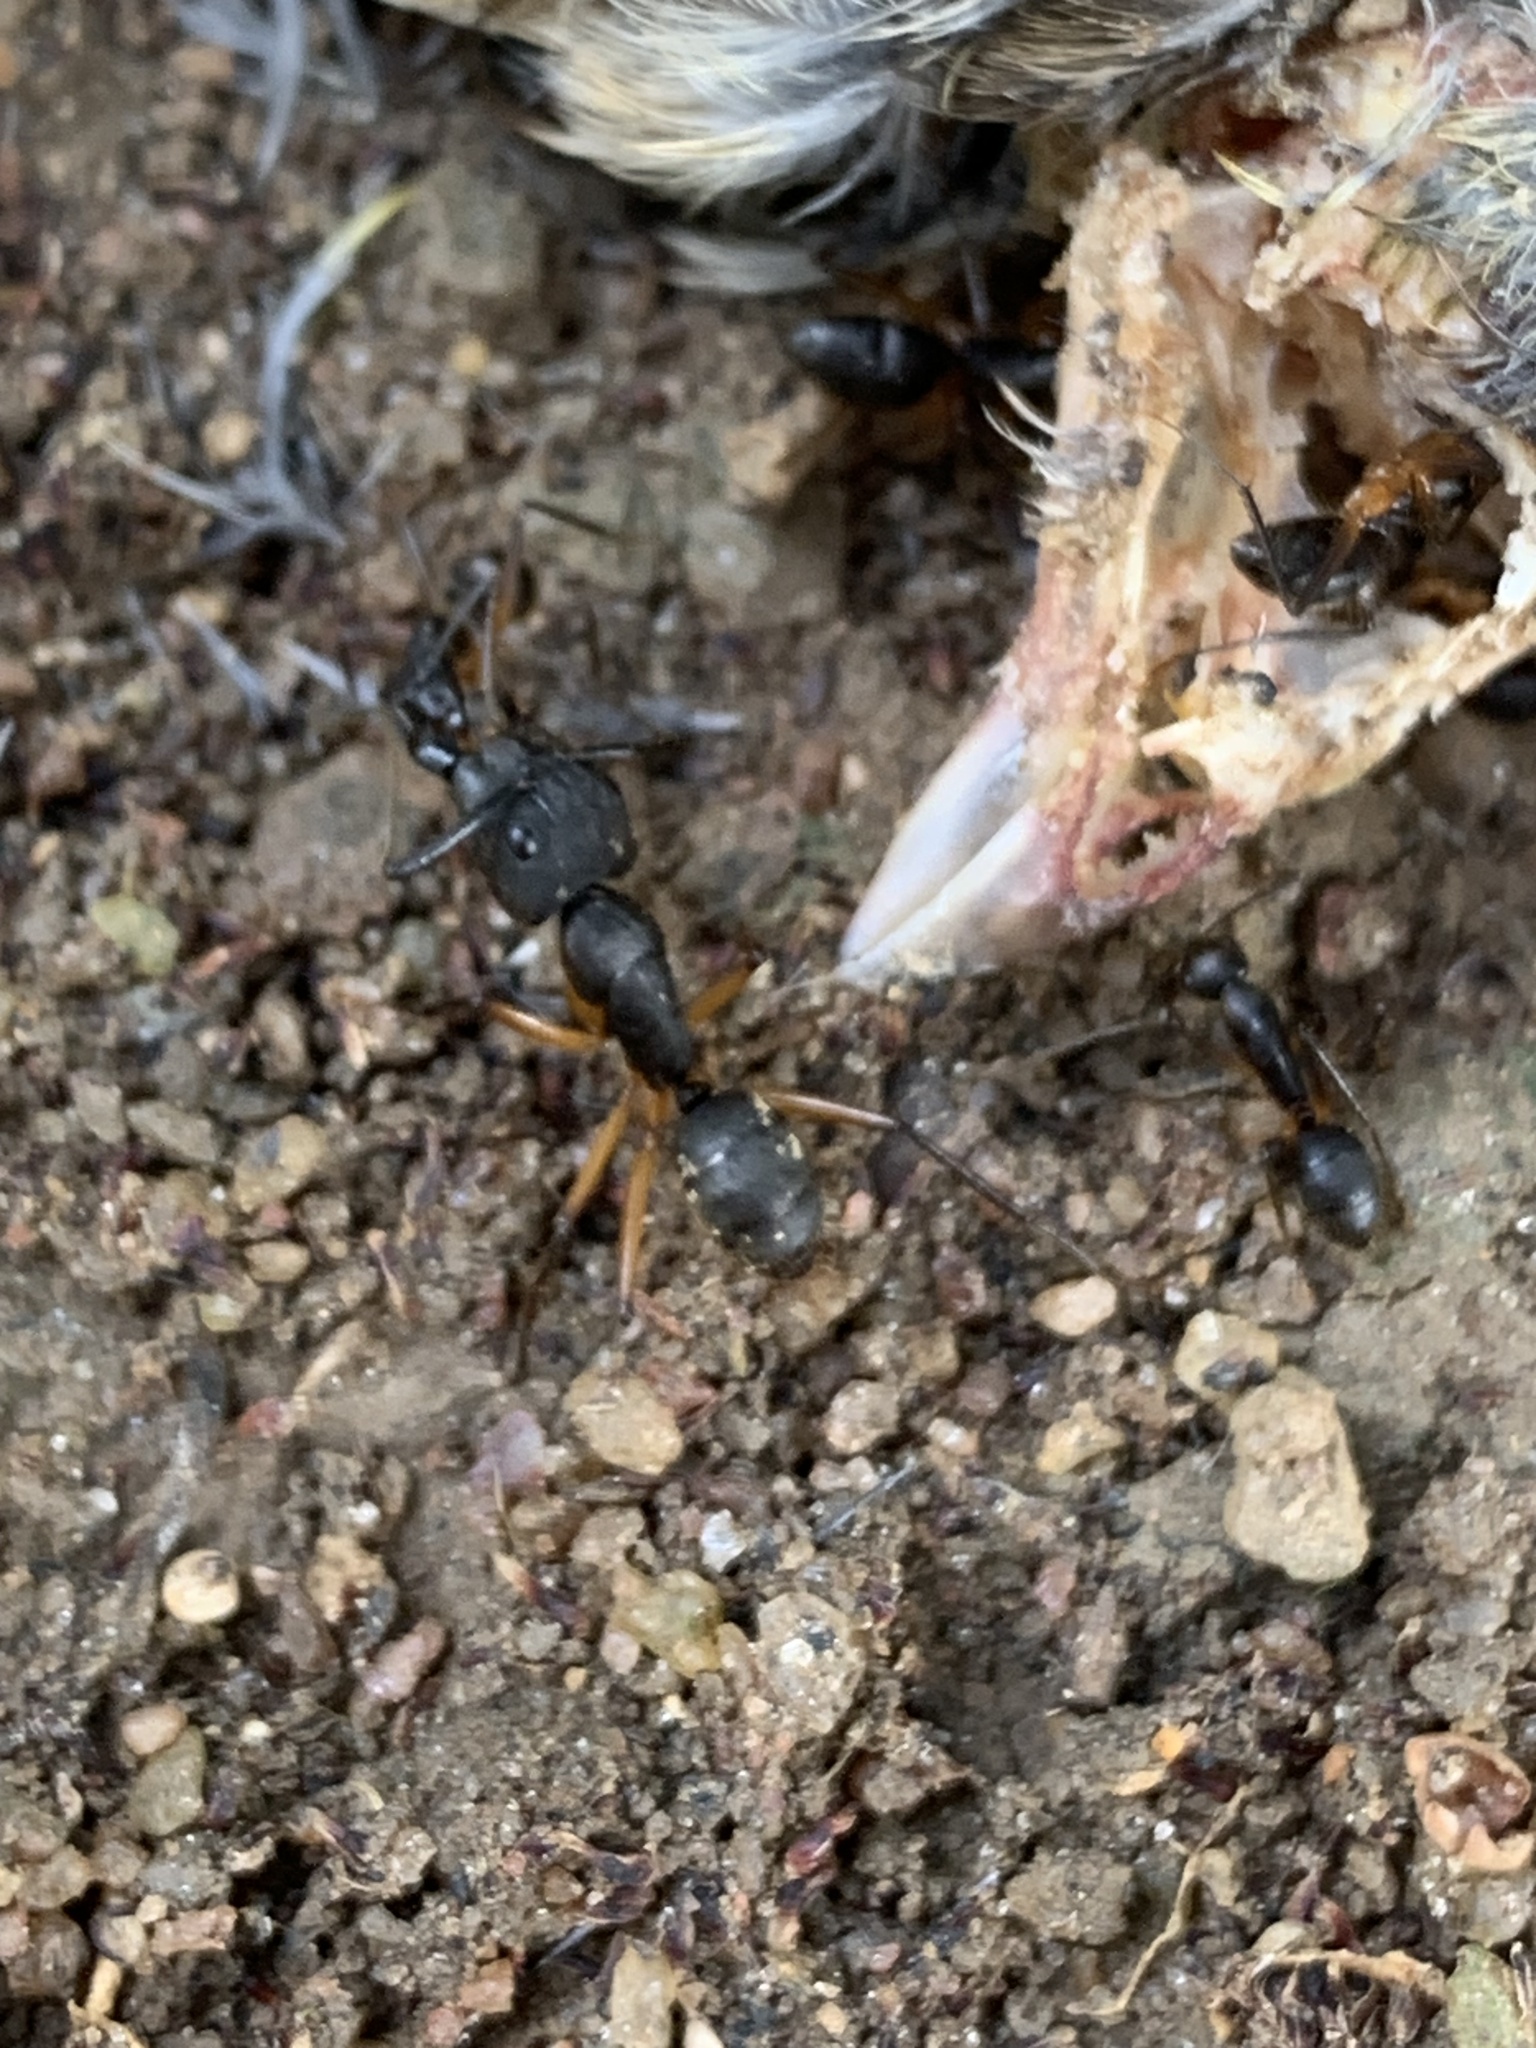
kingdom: Animalia
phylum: Arthropoda
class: Insecta
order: Hymenoptera
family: Formicidae
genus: Camponotus
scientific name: Camponotus renggeri
